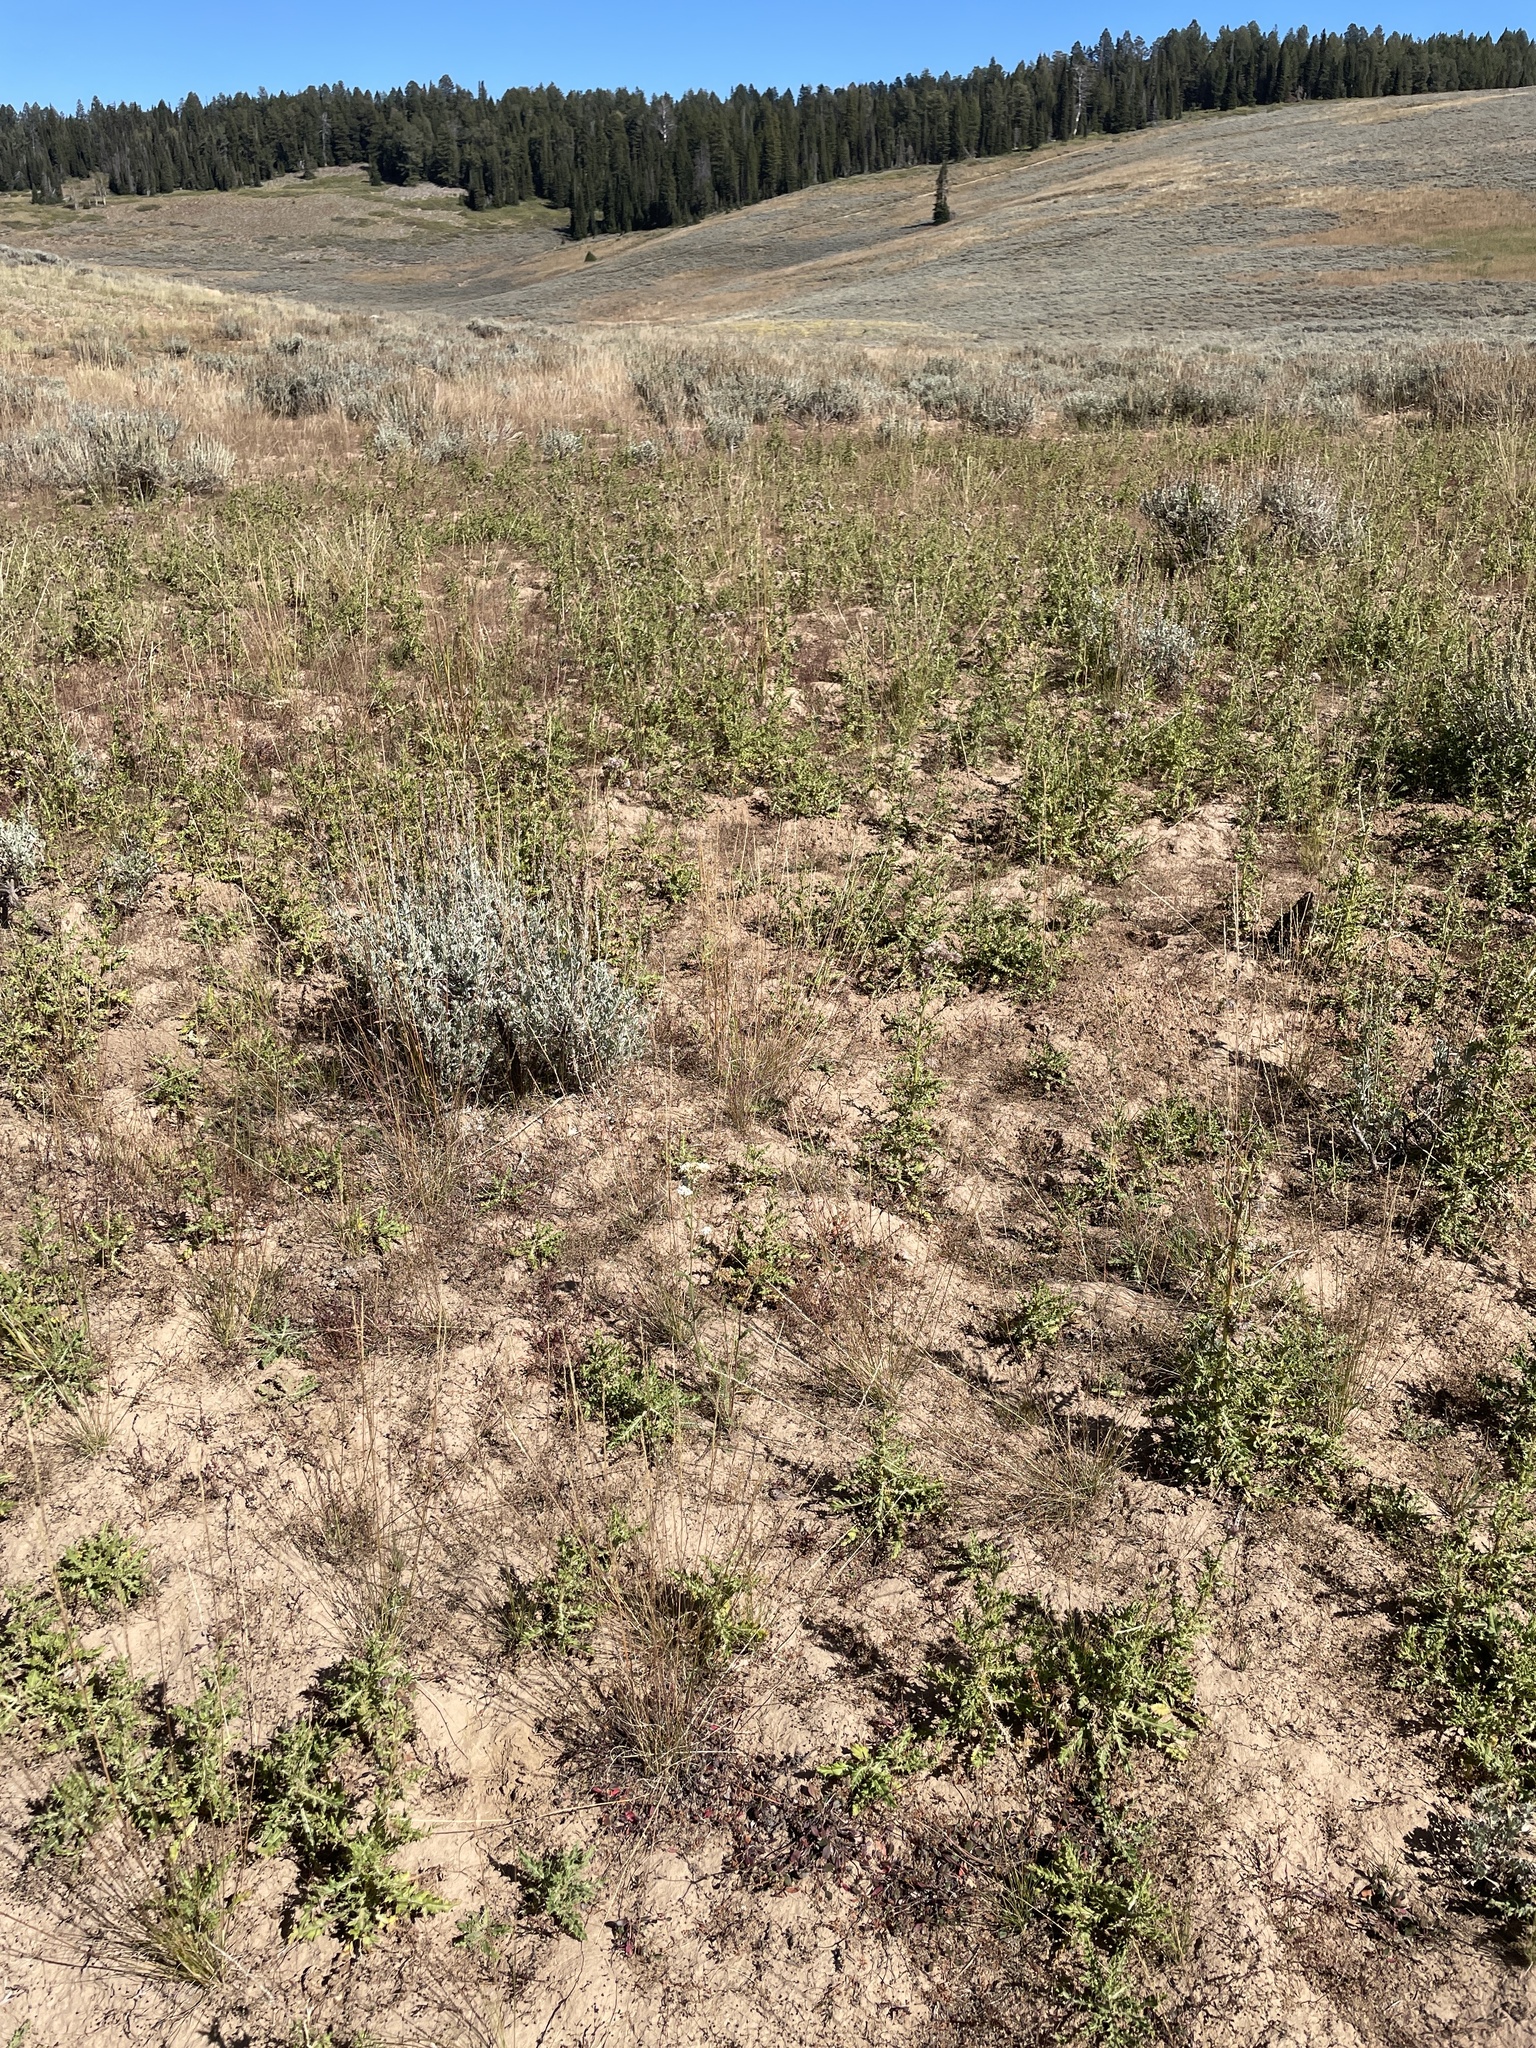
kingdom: Plantae
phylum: Tracheophyta
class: Magnoliopsida
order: Asterales
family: Asteraceae
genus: Cirsium
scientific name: Cirsium arvense
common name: Creeping thistle
